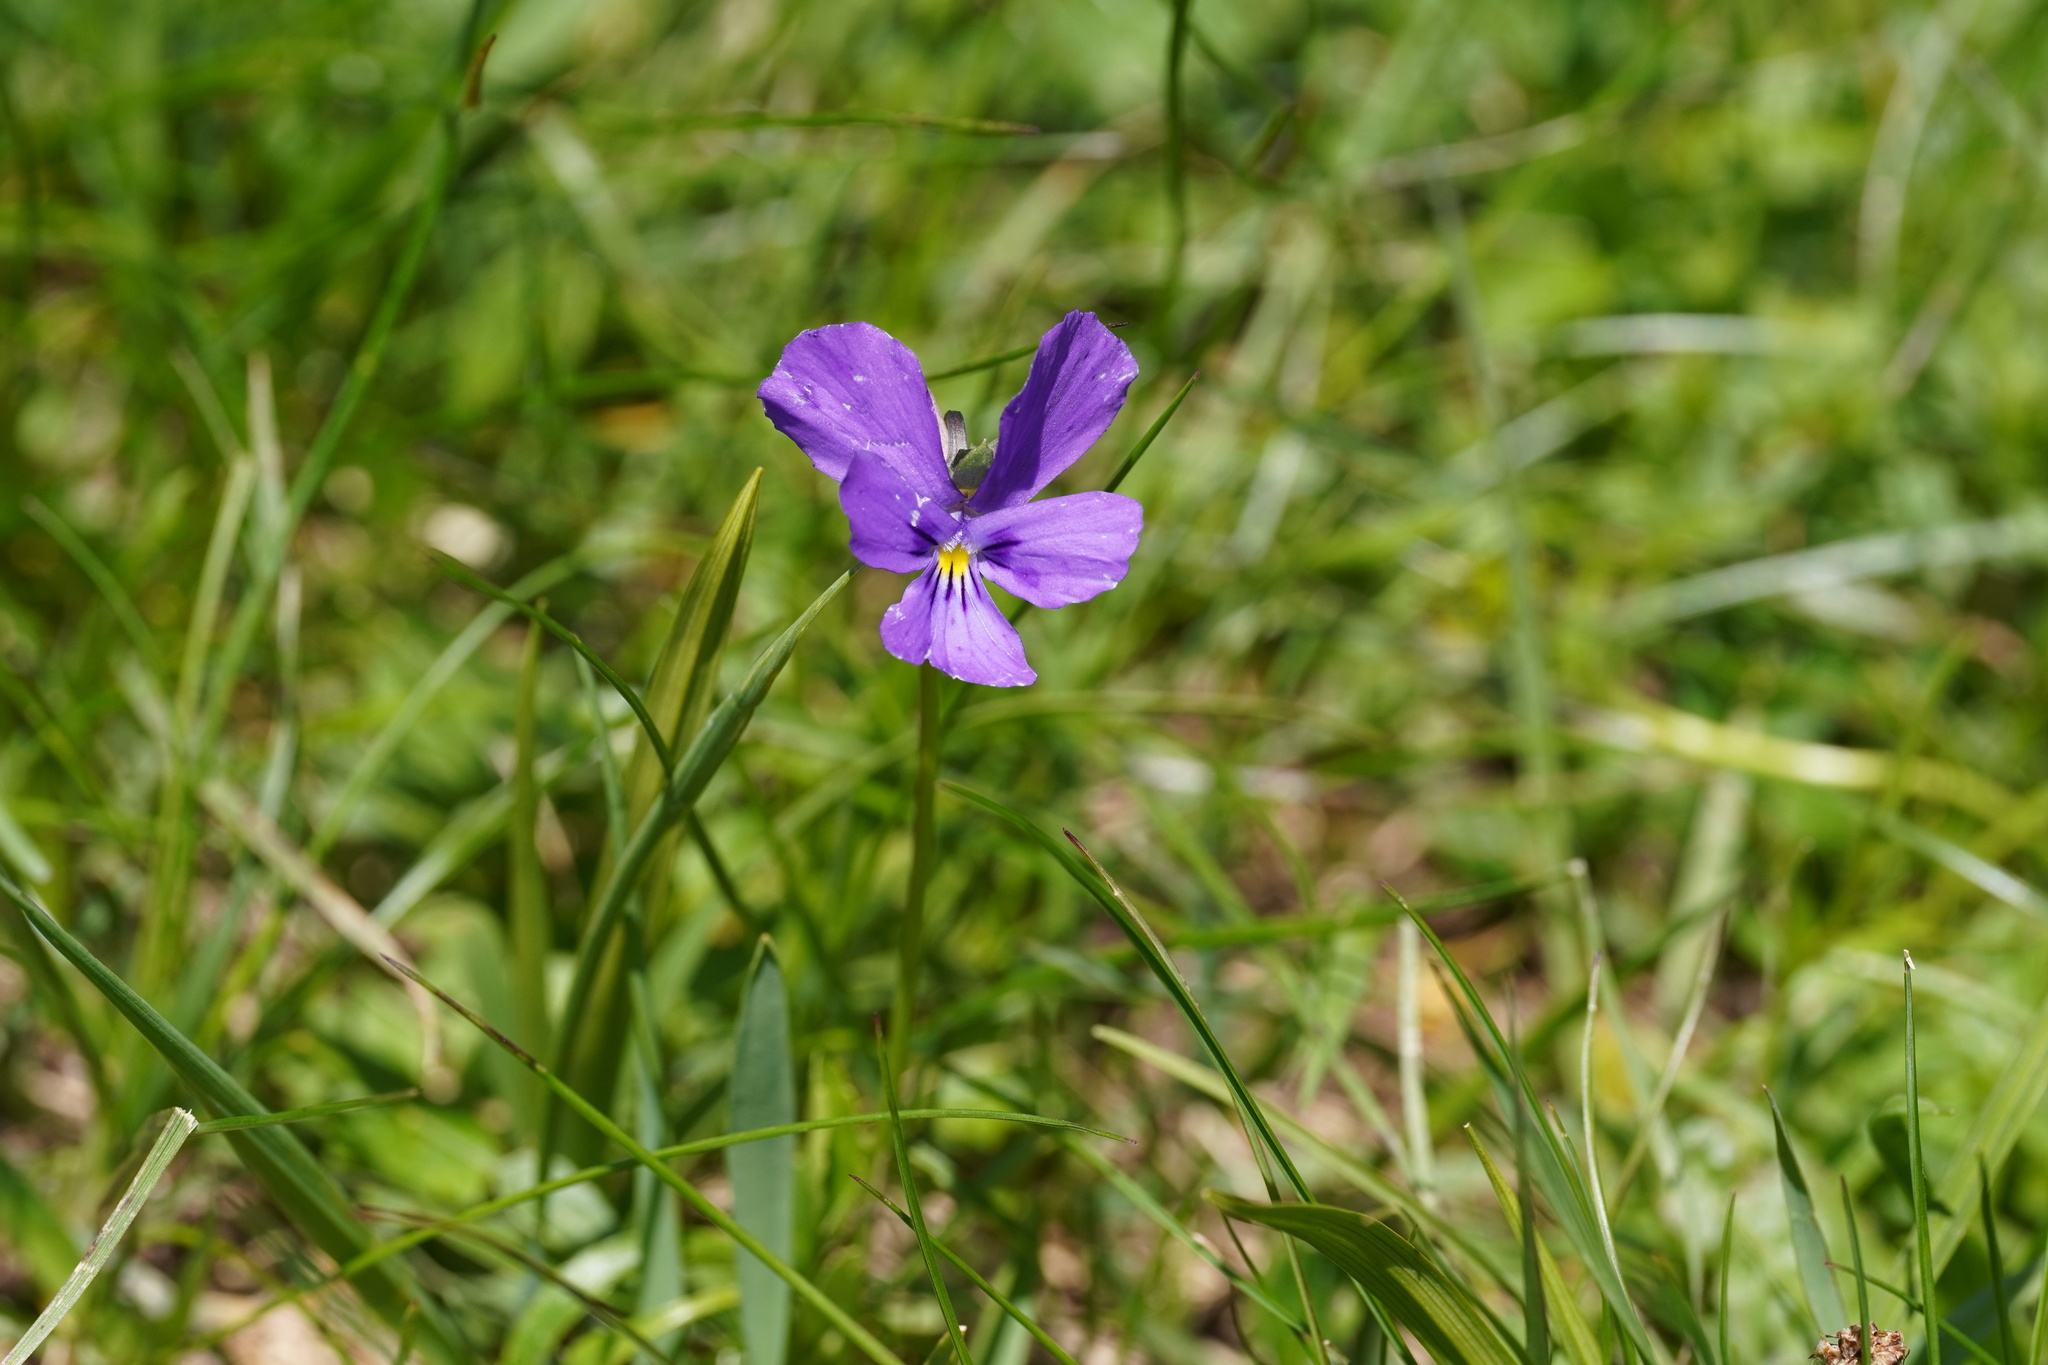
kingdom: Plantae
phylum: Tracheophyta
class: Magnoliopsida
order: Malpighiales
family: Violaceae
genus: Viola
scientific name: Viola calcarata
